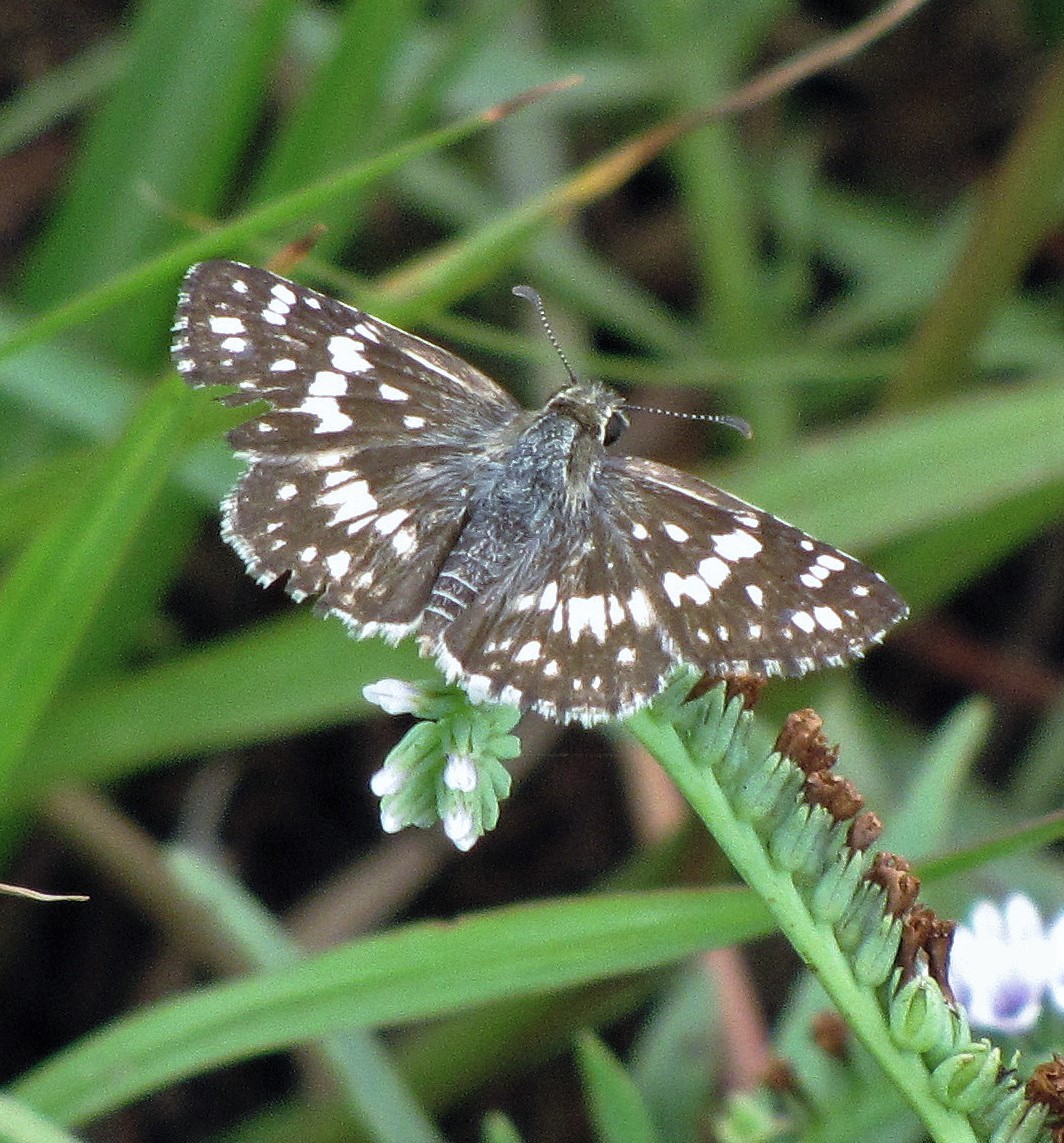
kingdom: Animalia
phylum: Arthropoda
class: Insecta
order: Lepidoptera
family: Hesperiidae
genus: Burnsius
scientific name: Burnsius orcynoides
